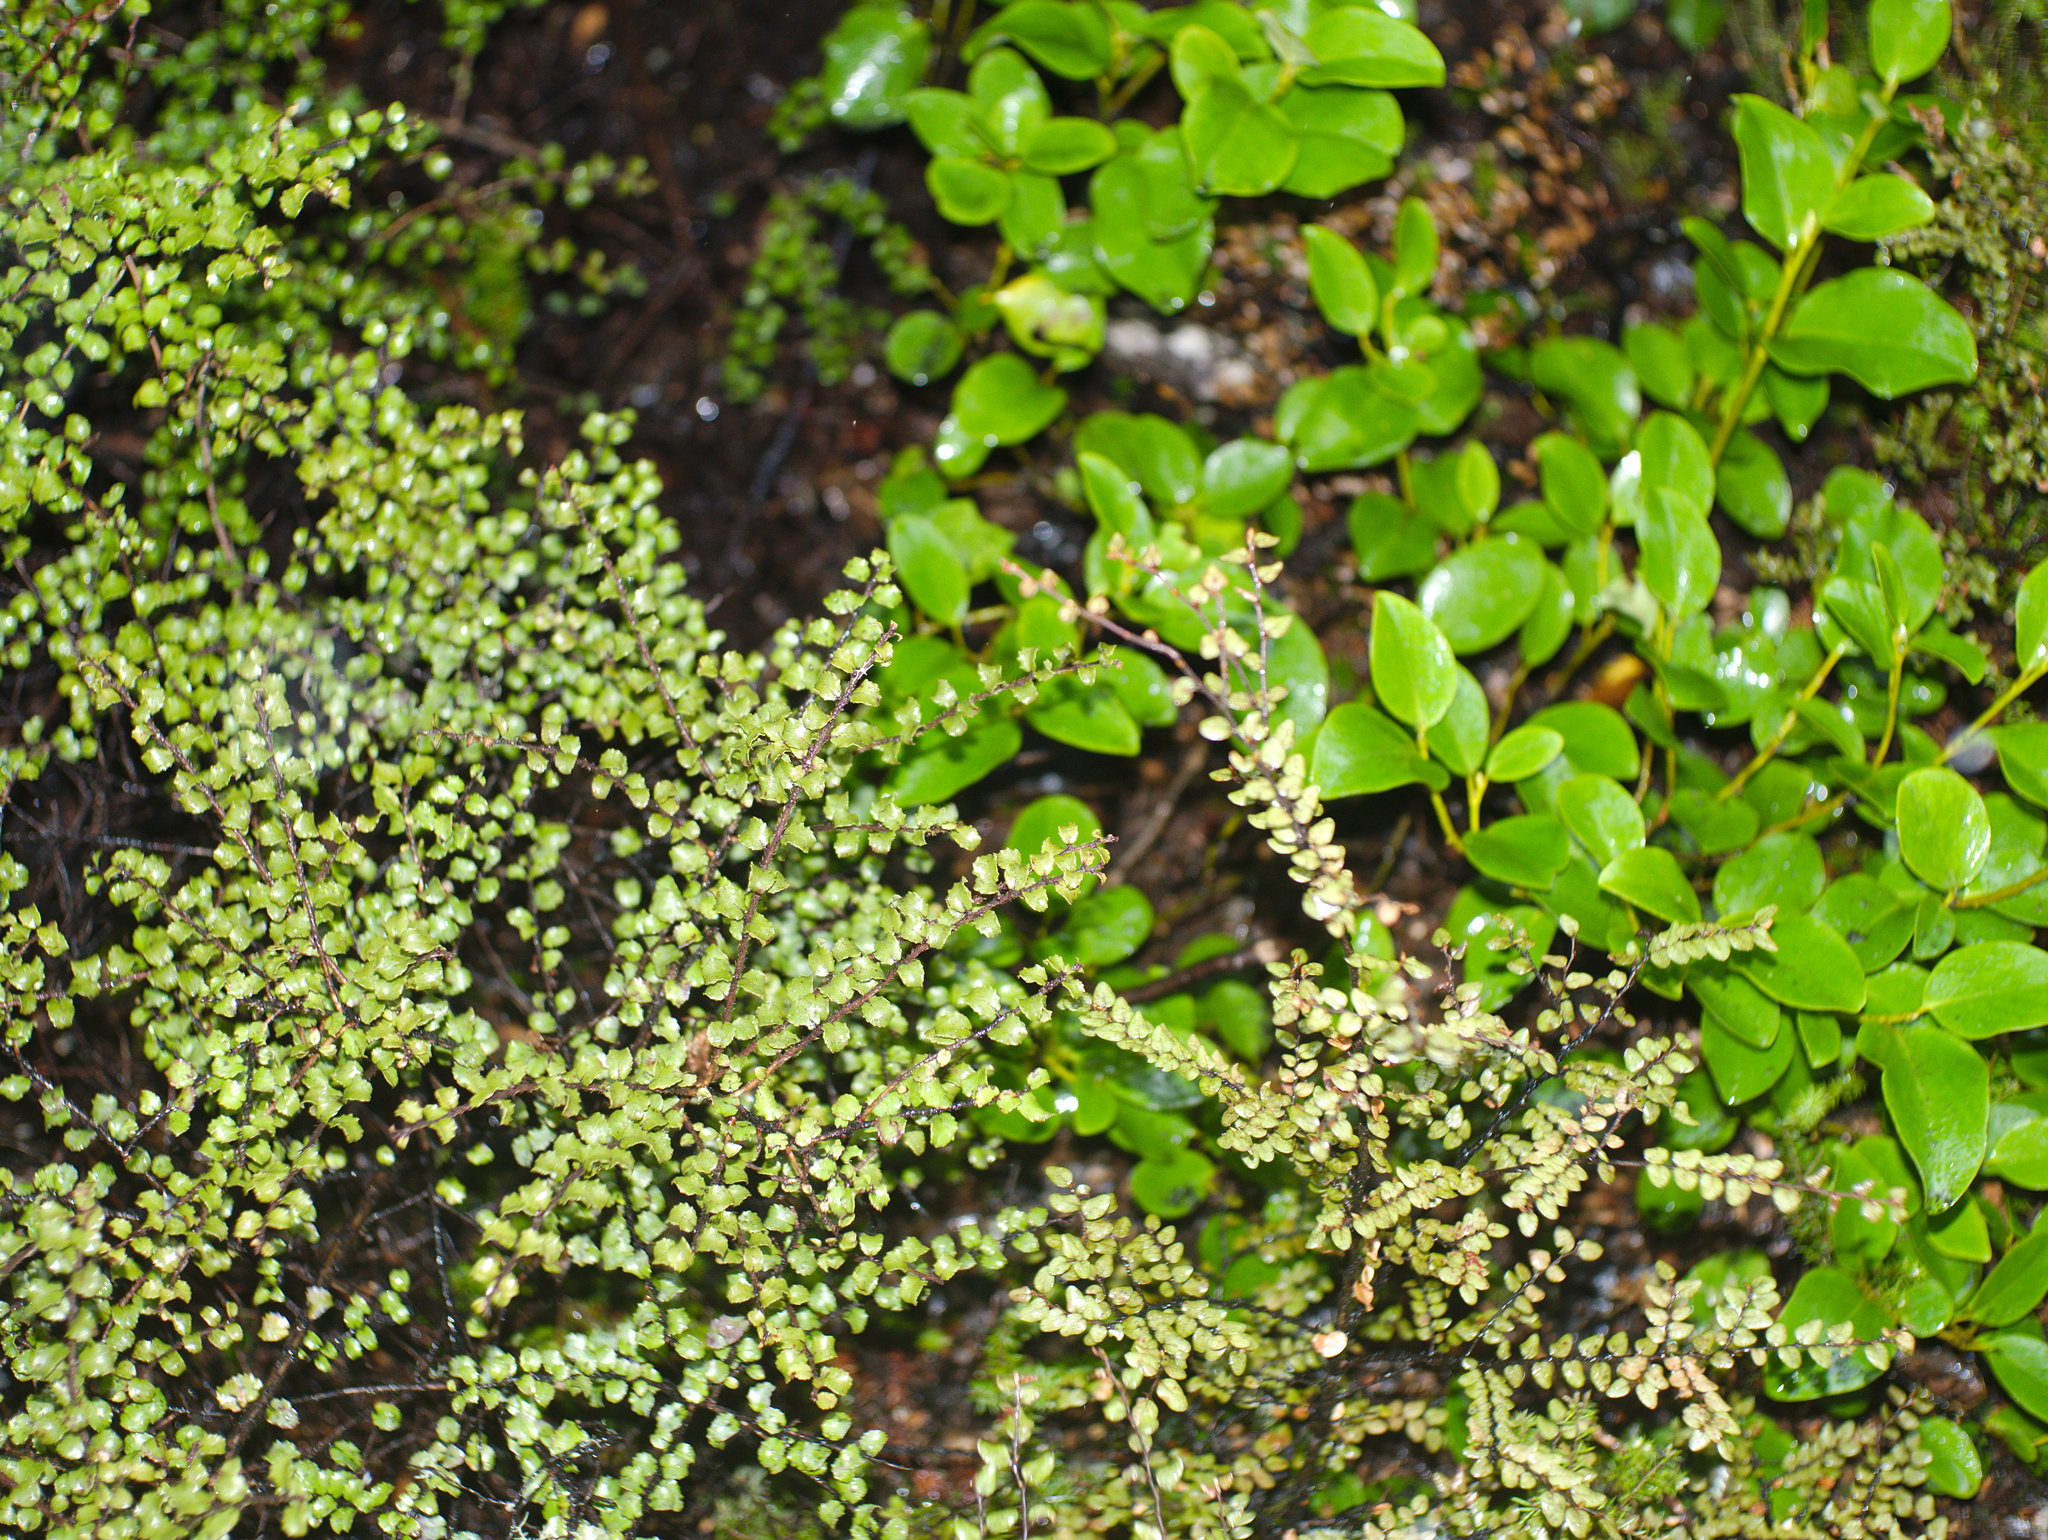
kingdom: Plantae
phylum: Tracheophyta
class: Magnoliopsida
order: Ericales
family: Ericaceae
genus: Gaultheria
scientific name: Gaultheria antipoda
